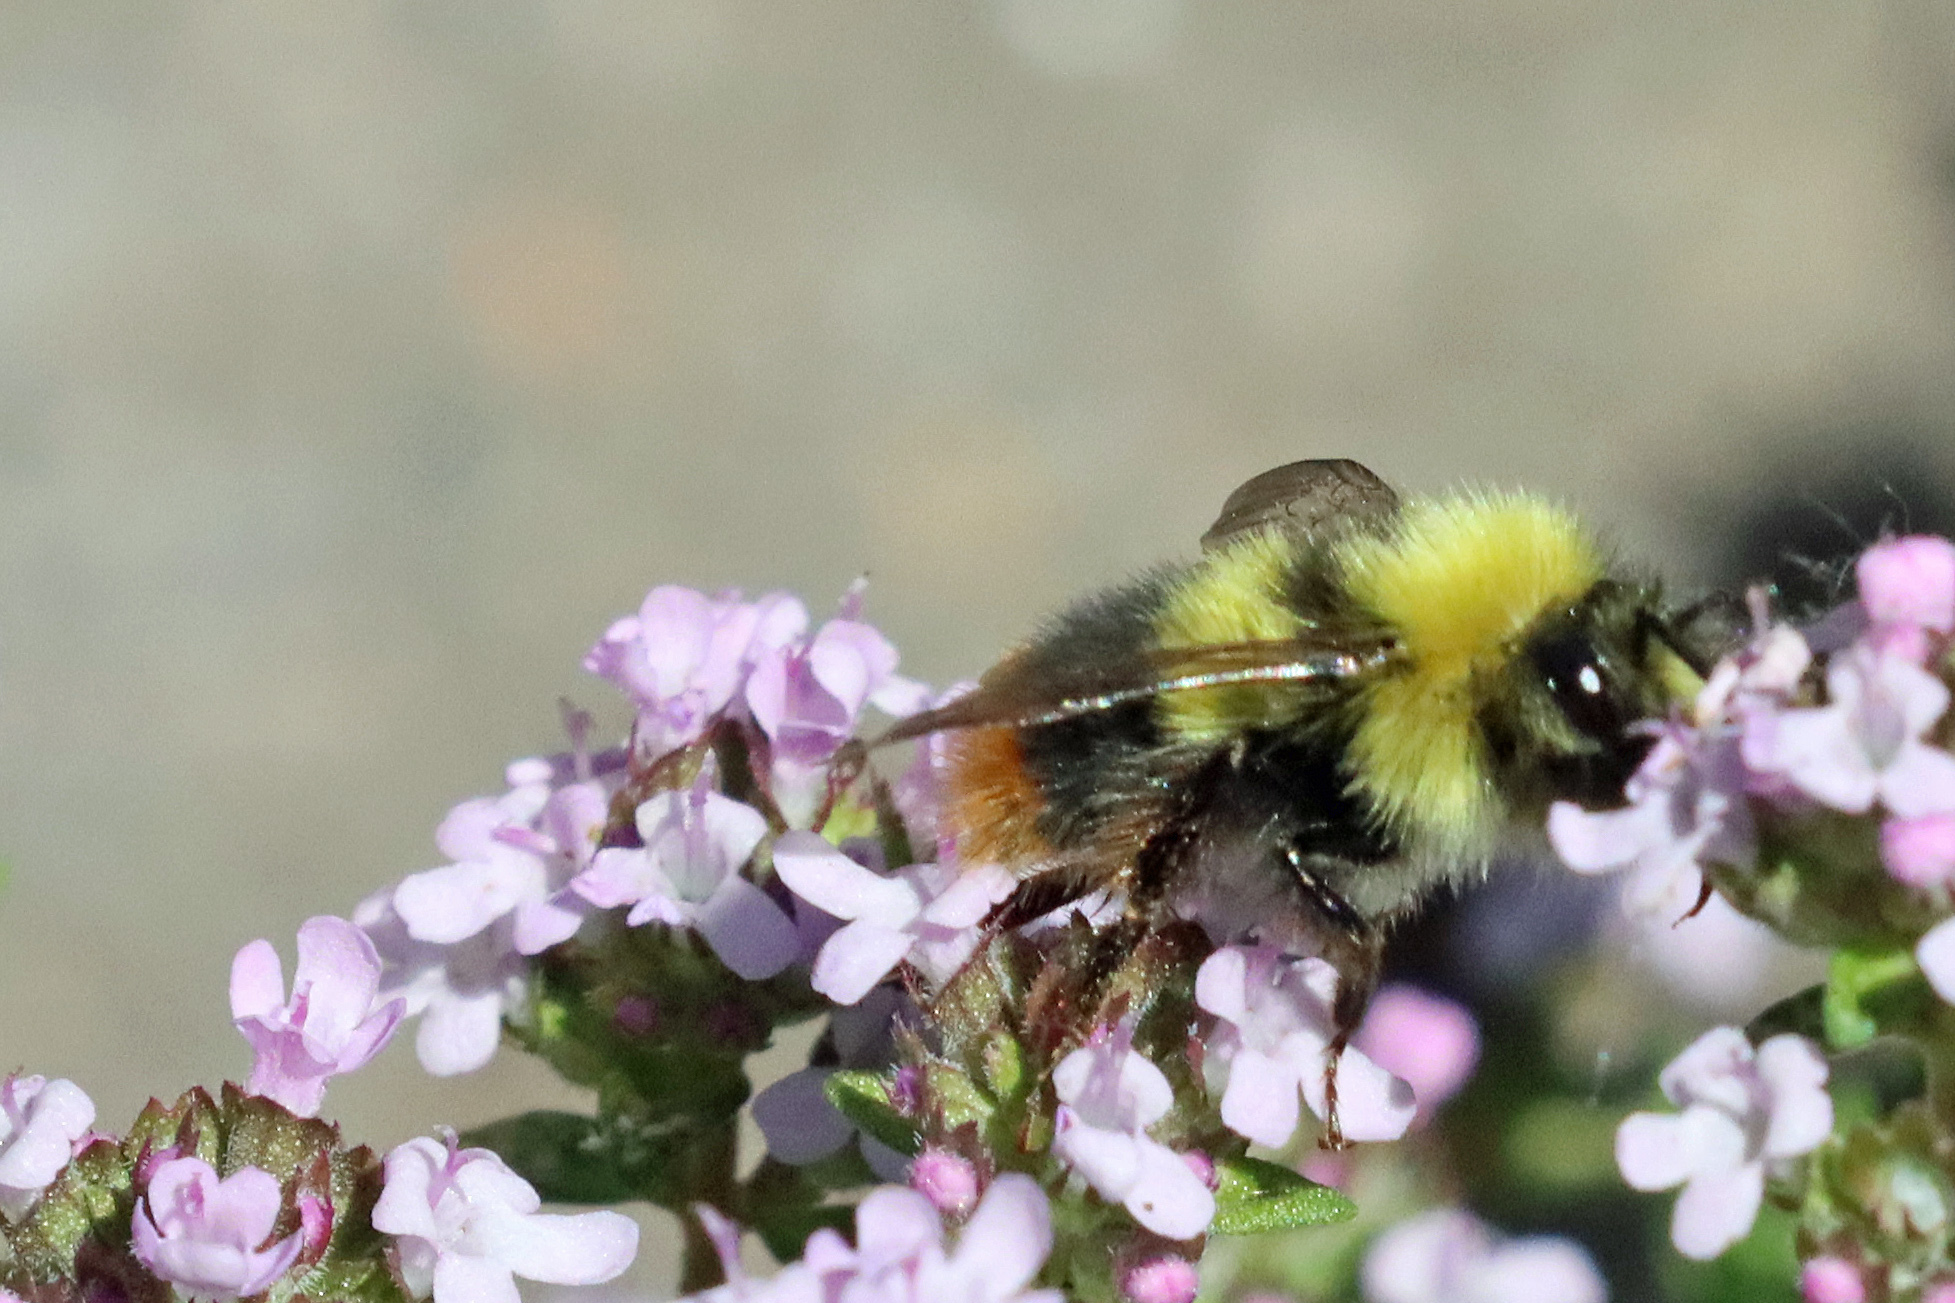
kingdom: Animalia
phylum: Arthropoda
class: Insecta
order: Hymenoptera
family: Apidae
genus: Bombus
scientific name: Bombus pratorum
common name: Early humble-bee
